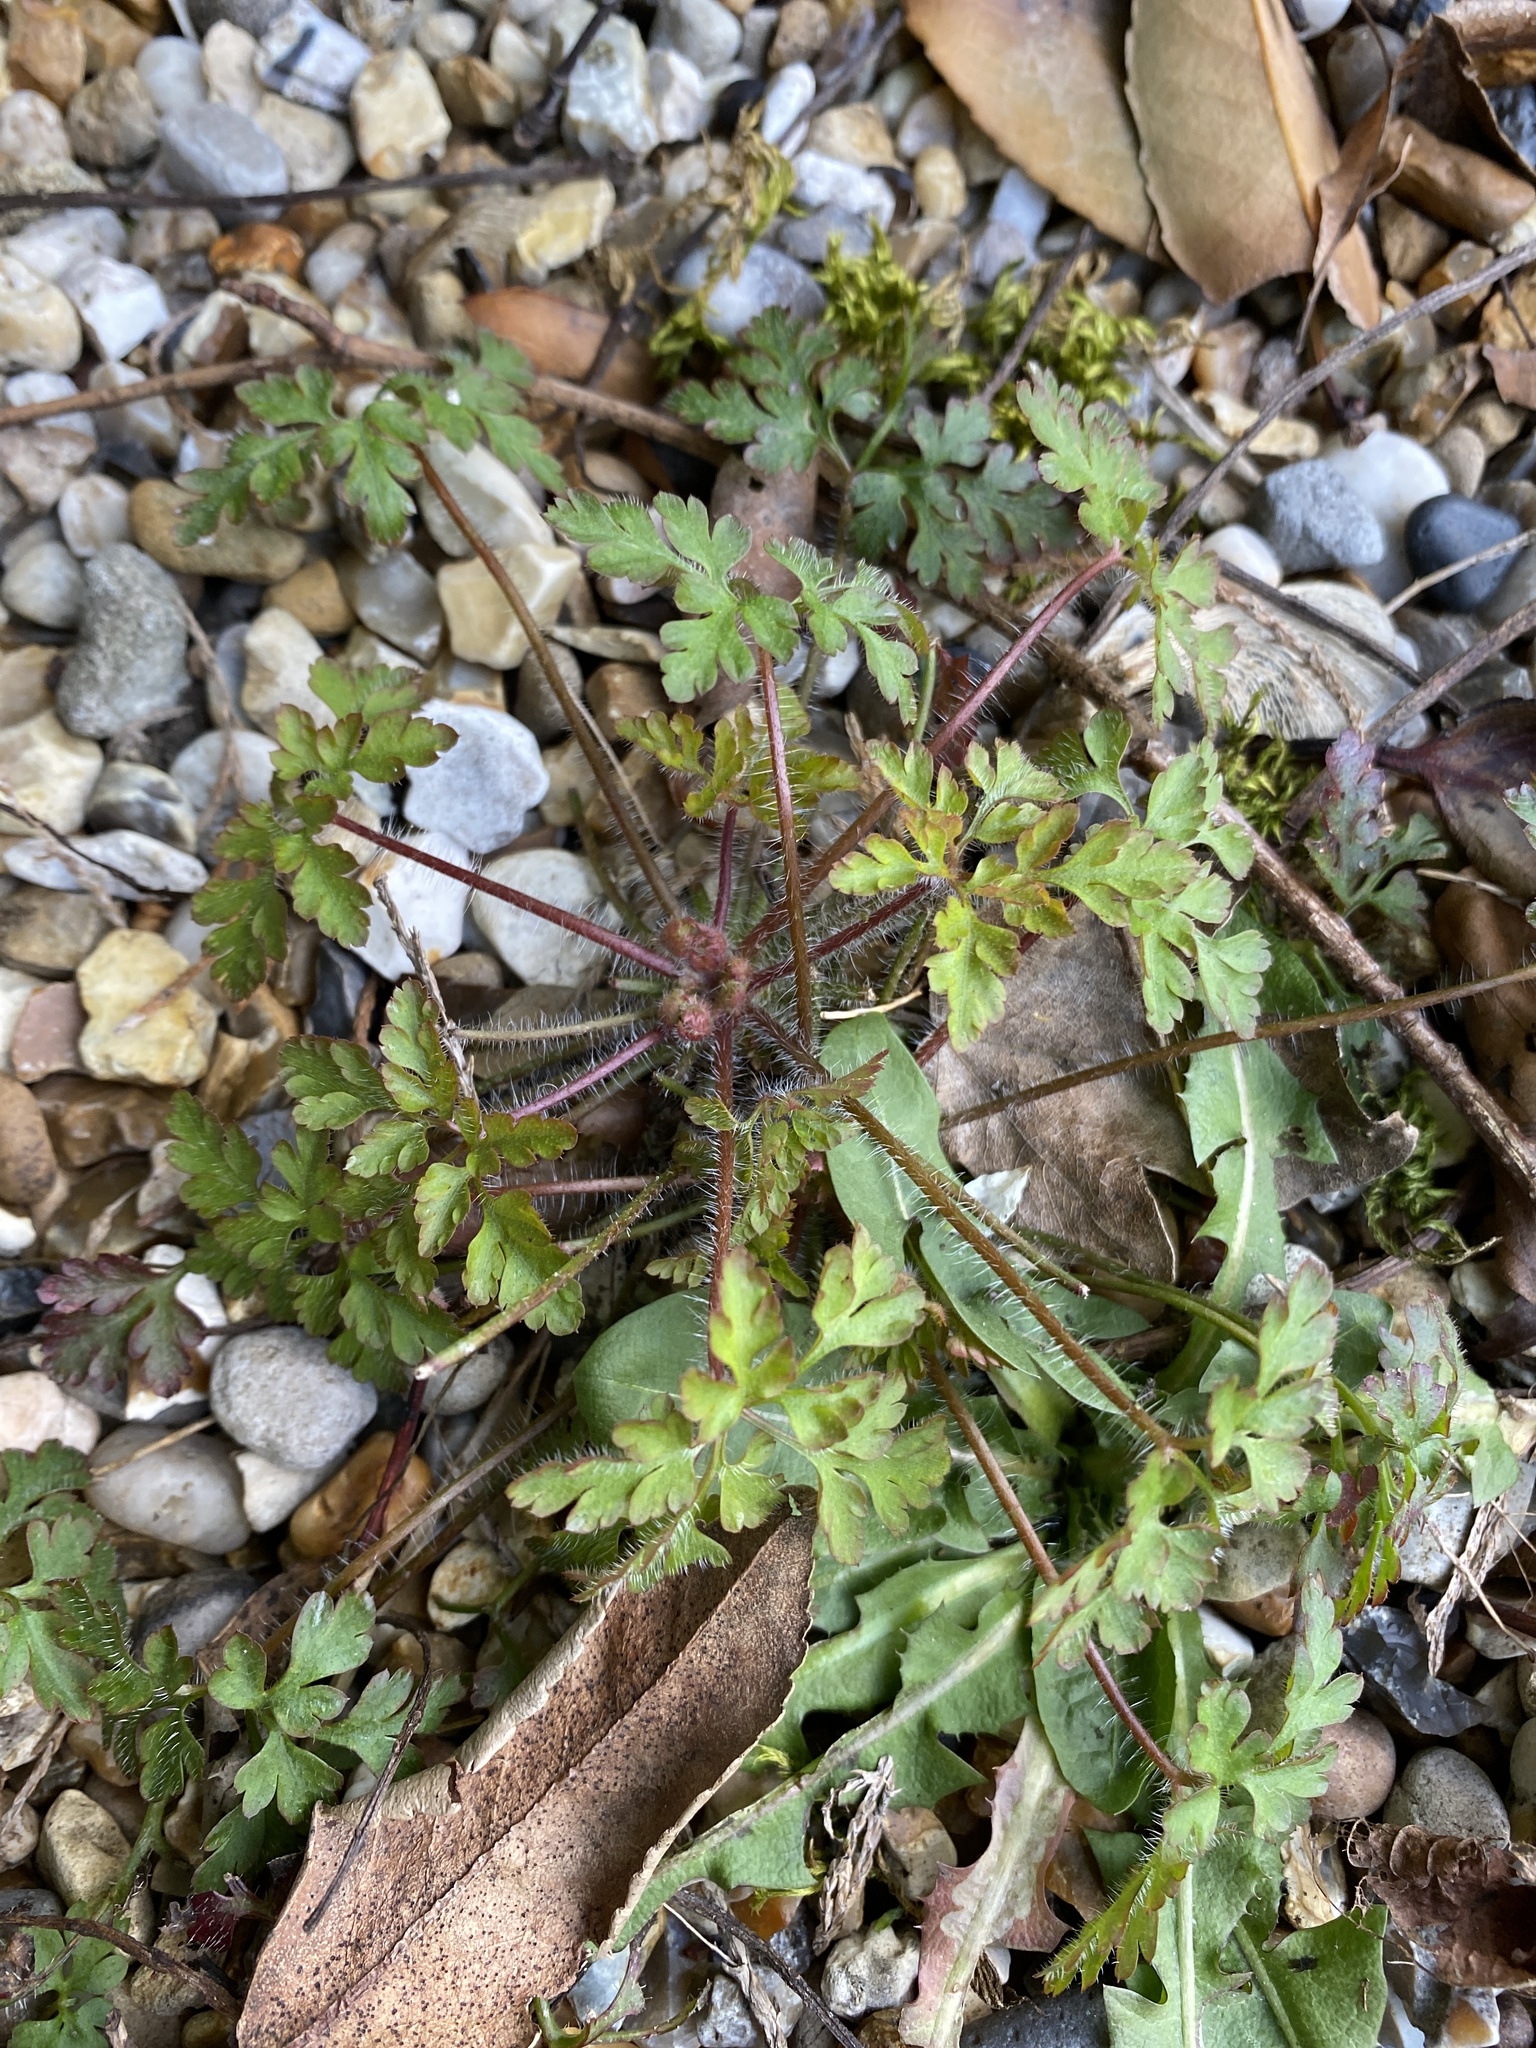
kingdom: Plantae
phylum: Tracheophyta
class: Magnoliopsida
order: Geraniales
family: Geraniaceae
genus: Geranium
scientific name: Geranium robertianum
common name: Herb-robert
